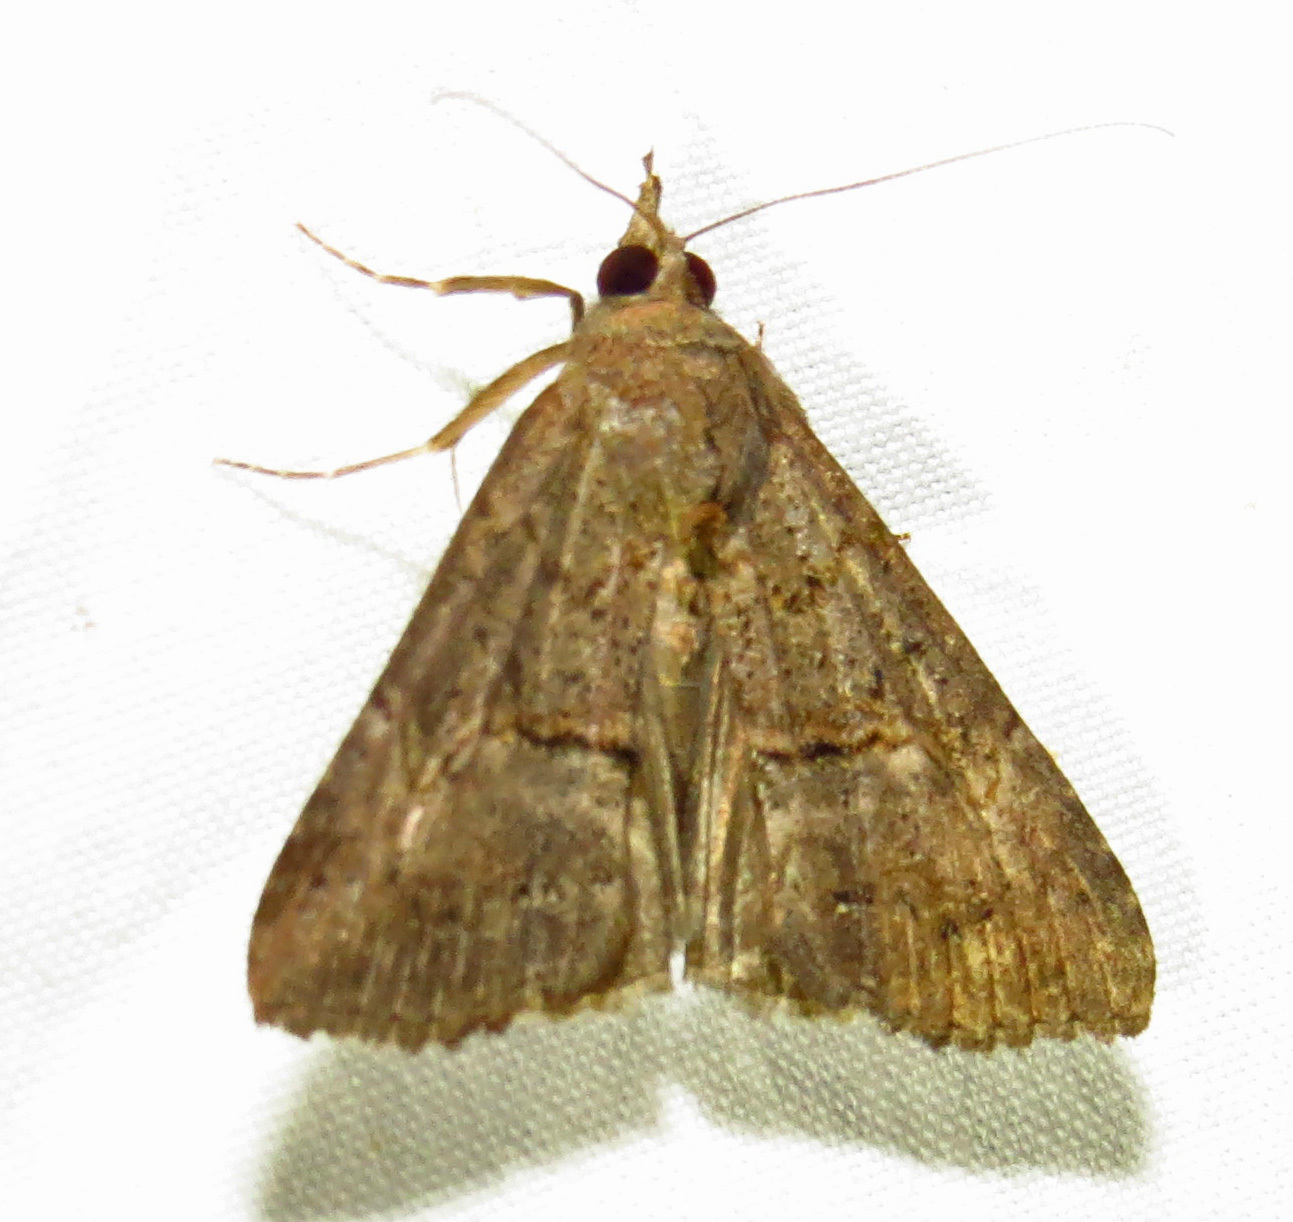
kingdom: Animalia
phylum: Arthropoda
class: Insecta
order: Lepidoptera
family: Erebidae
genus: Hypena
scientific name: Hypena scabra
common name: Green cloverworm
